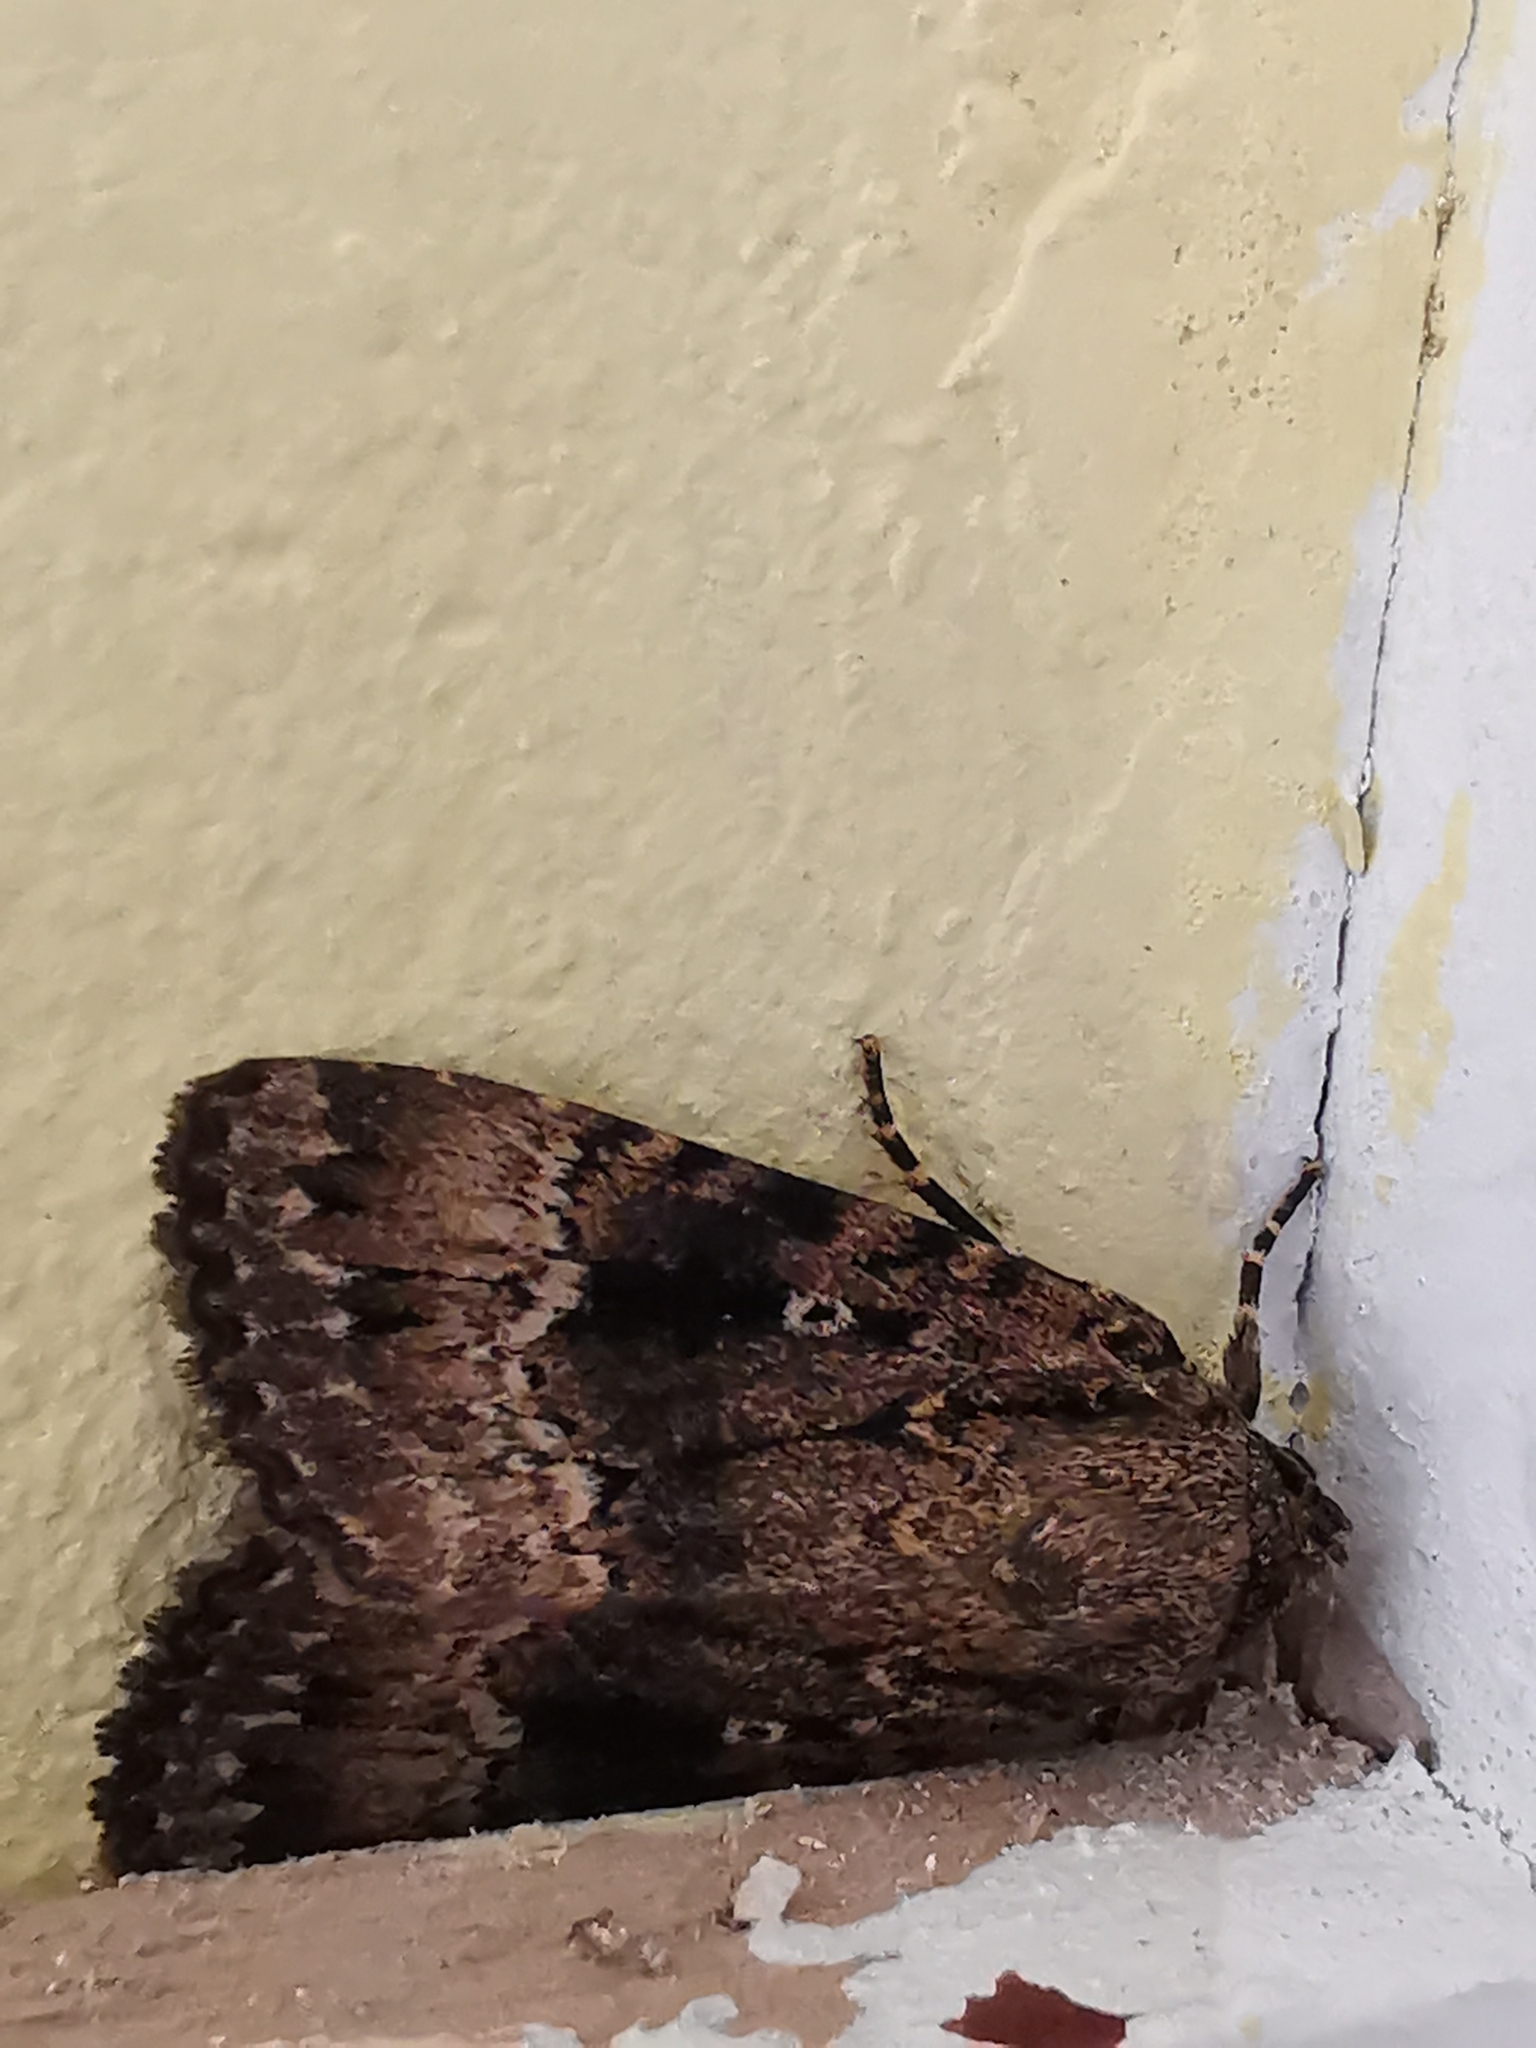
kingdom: Animalia
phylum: Arthropoda
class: Insecta
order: Lepidoptera
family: Noctuidae
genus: Amphipyra
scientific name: Amphipyra pyramidea
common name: Copper underwing
